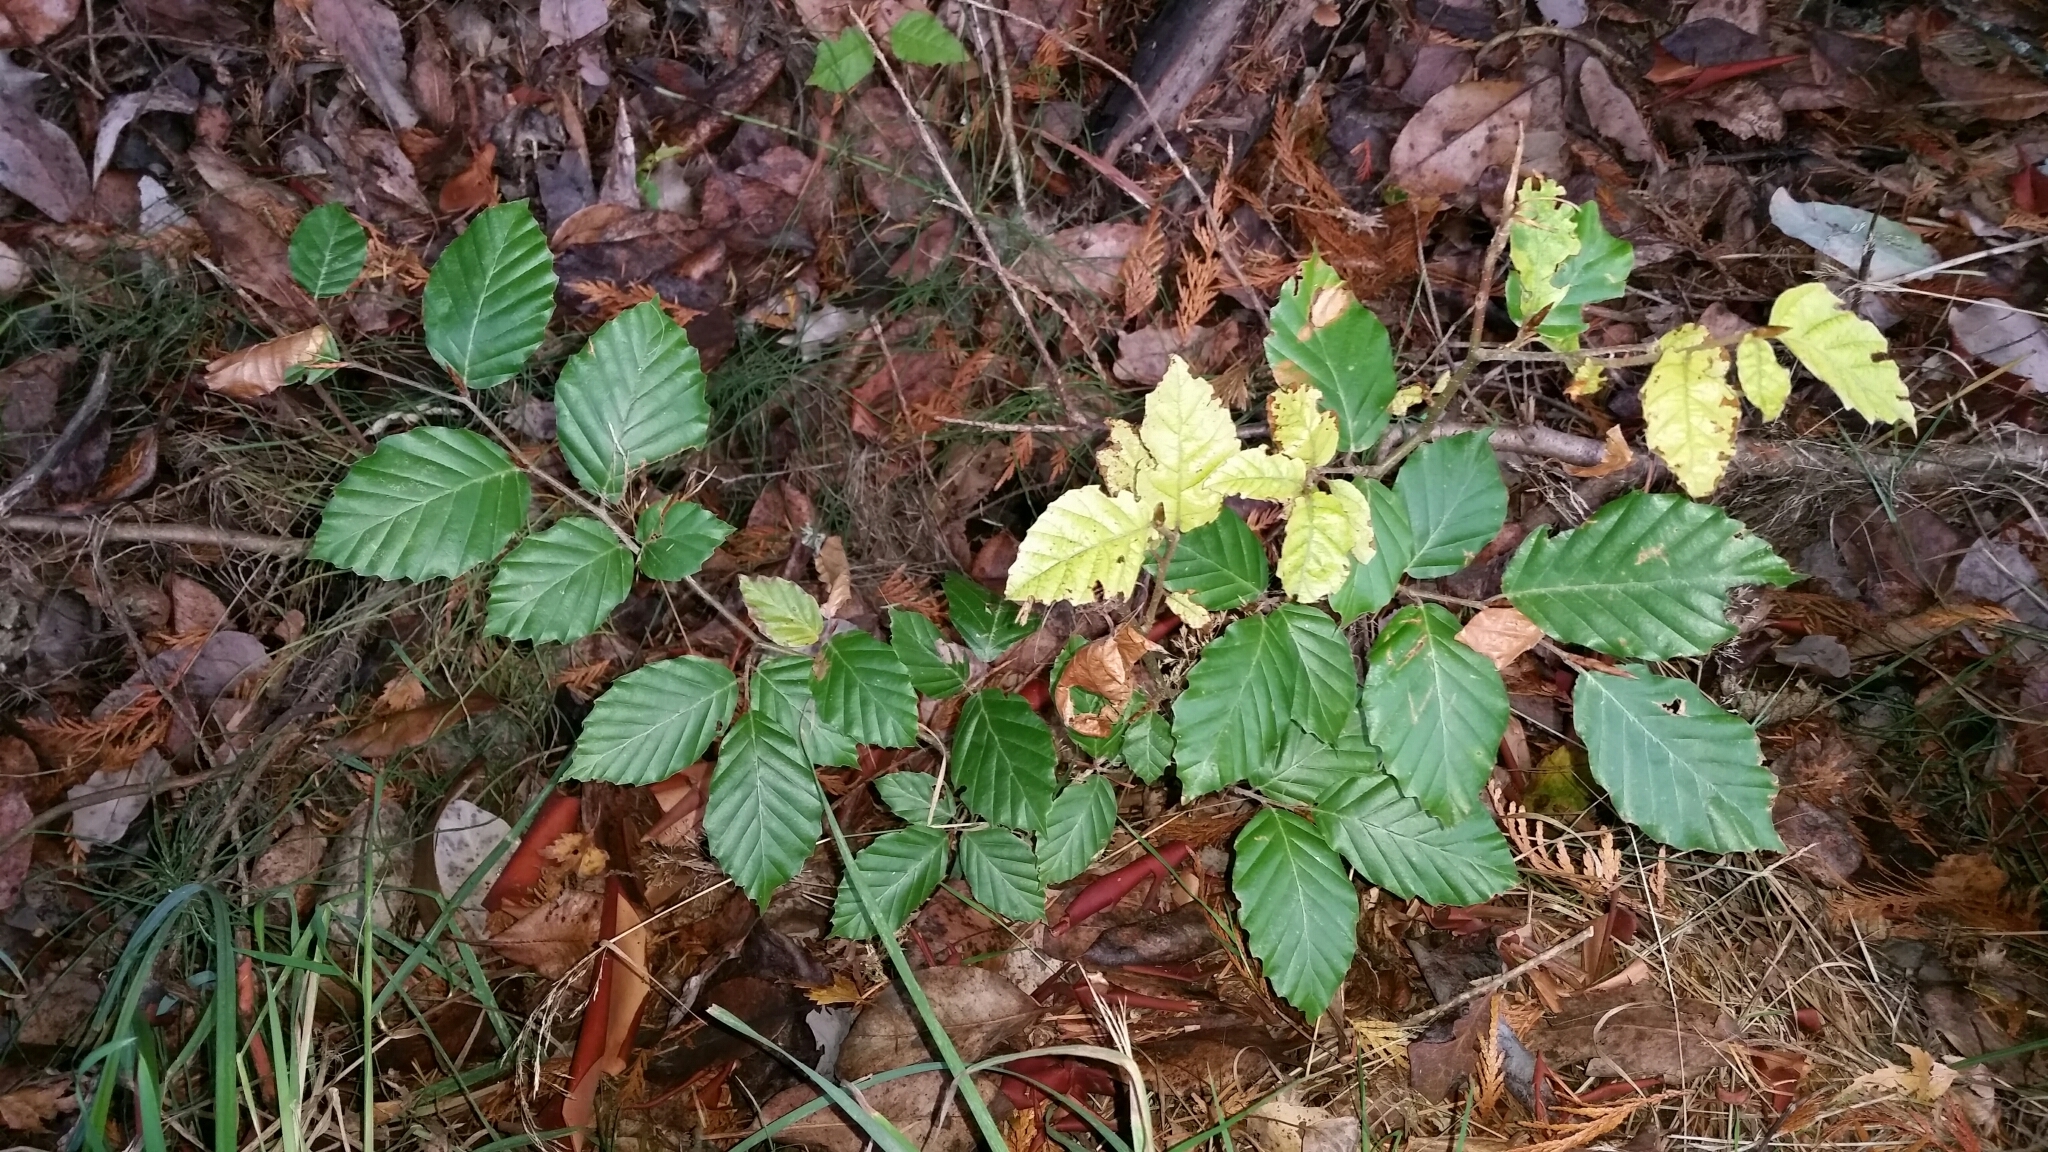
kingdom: Plantae
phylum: Tracheophyta
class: Magnoliopsida
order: Fagales
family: Fagaceae
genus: Fagus
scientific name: Fagus sylvatica
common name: Beech
